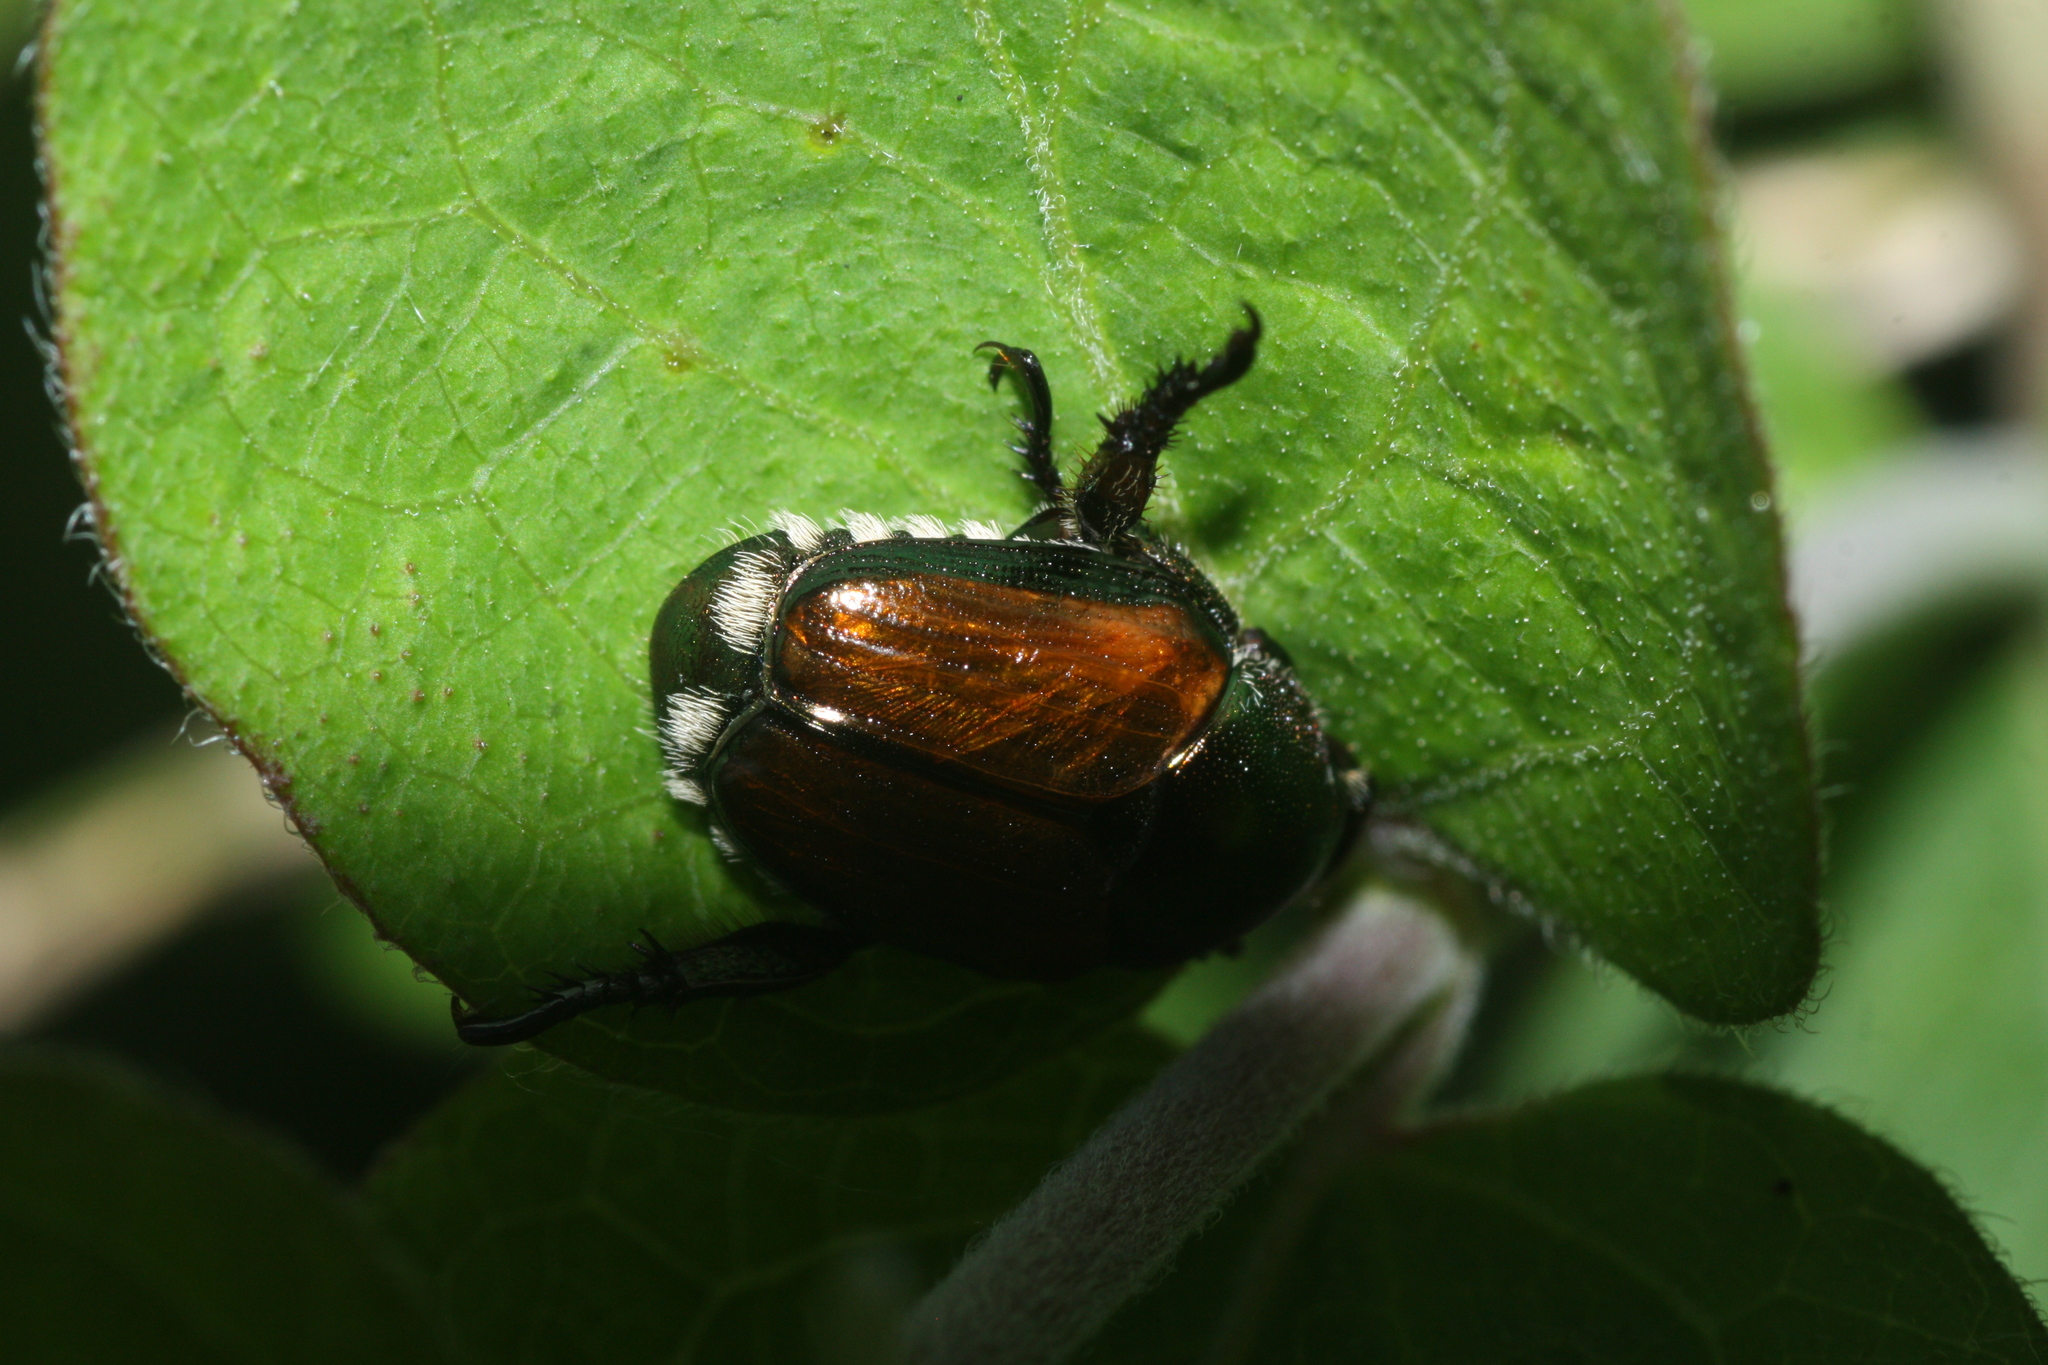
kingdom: Animalia
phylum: Arthropoda
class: Insecta
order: Coleoptera
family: Scarabaeidae
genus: Popillia
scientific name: Popillia japonica
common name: Japanese beetle
